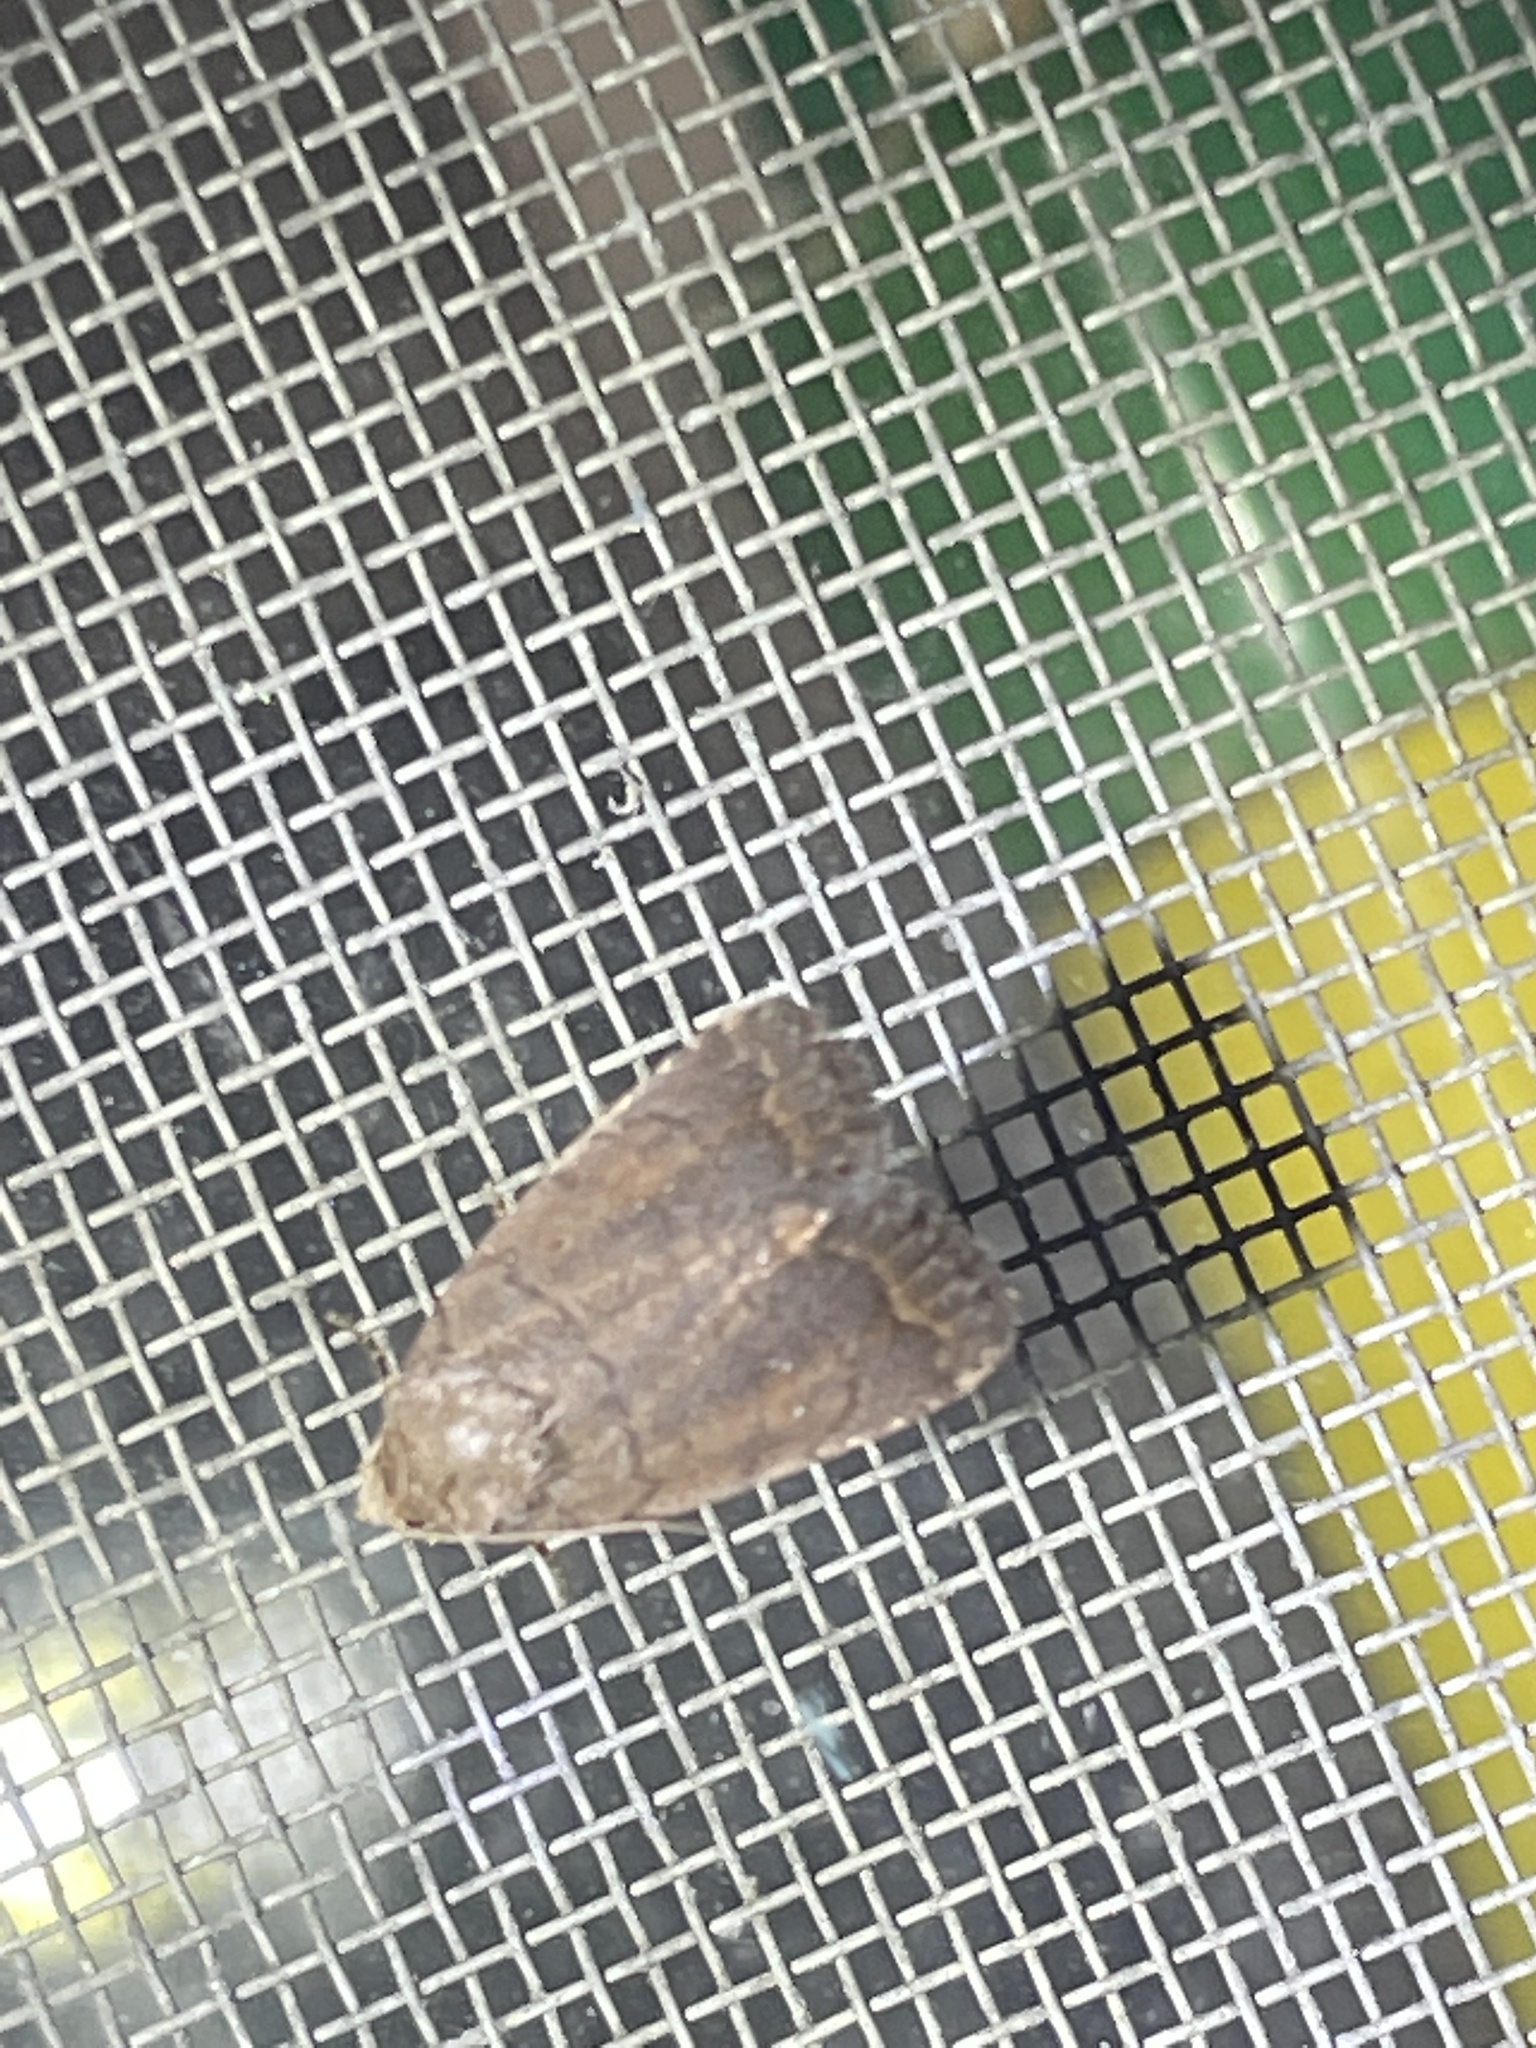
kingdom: Animalia
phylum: Arthropoda
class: Insecta
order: Lepidoptera
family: Noctuidae
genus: Athetis
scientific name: Athetis tarda
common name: Slowpoke moth
